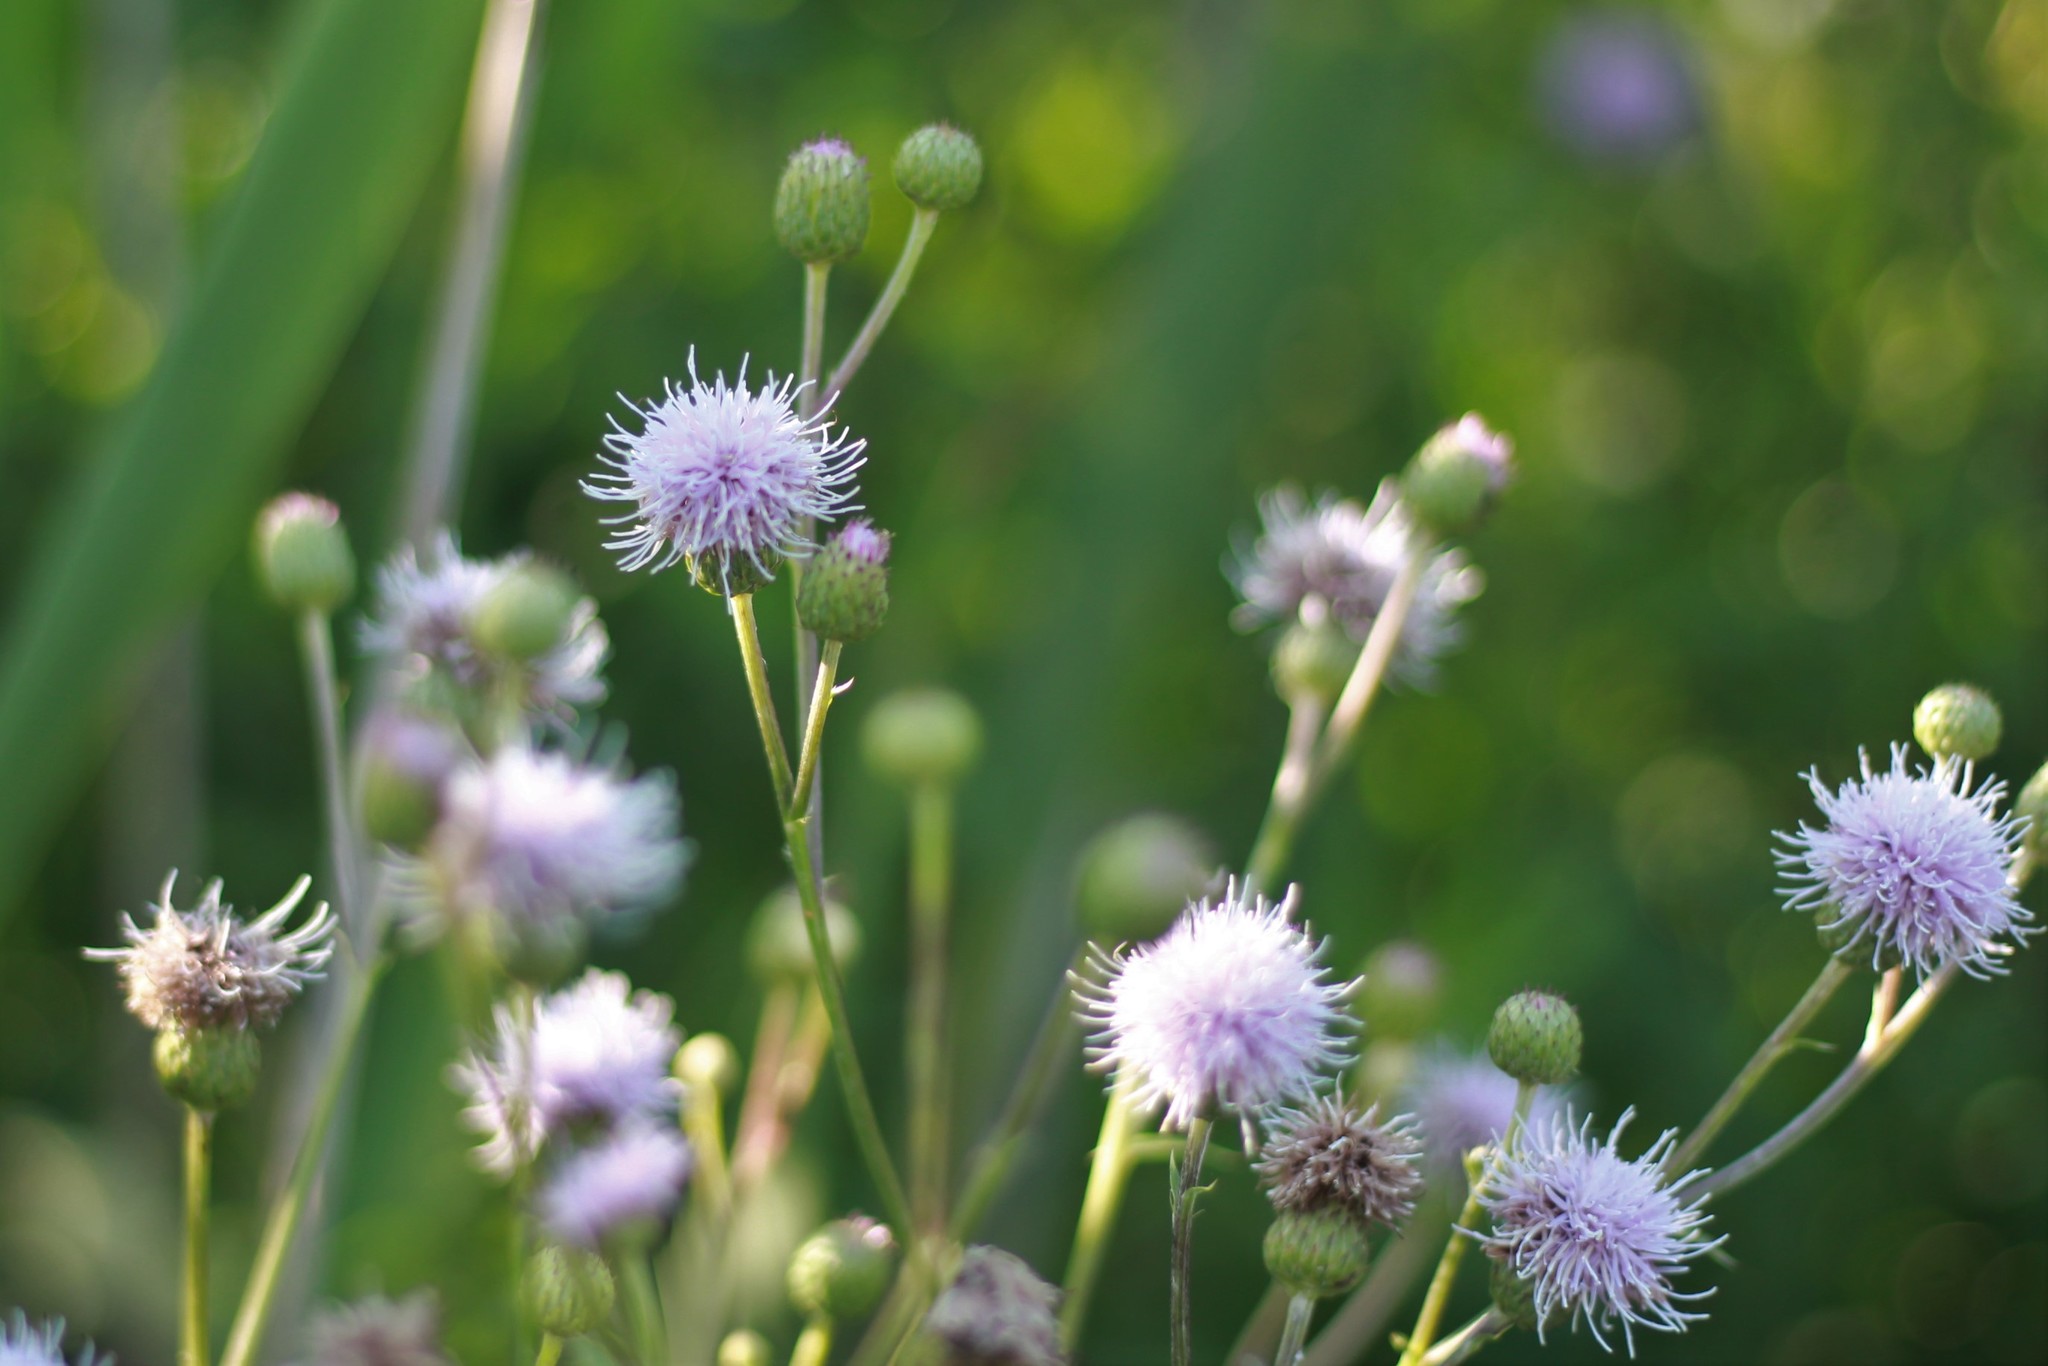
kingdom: Plantae
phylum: Tracheophyta
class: Magnoliopsida
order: Asterales
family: Asteraceae
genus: Cirsium
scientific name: Cirsium arvense
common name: Creeping thistle
